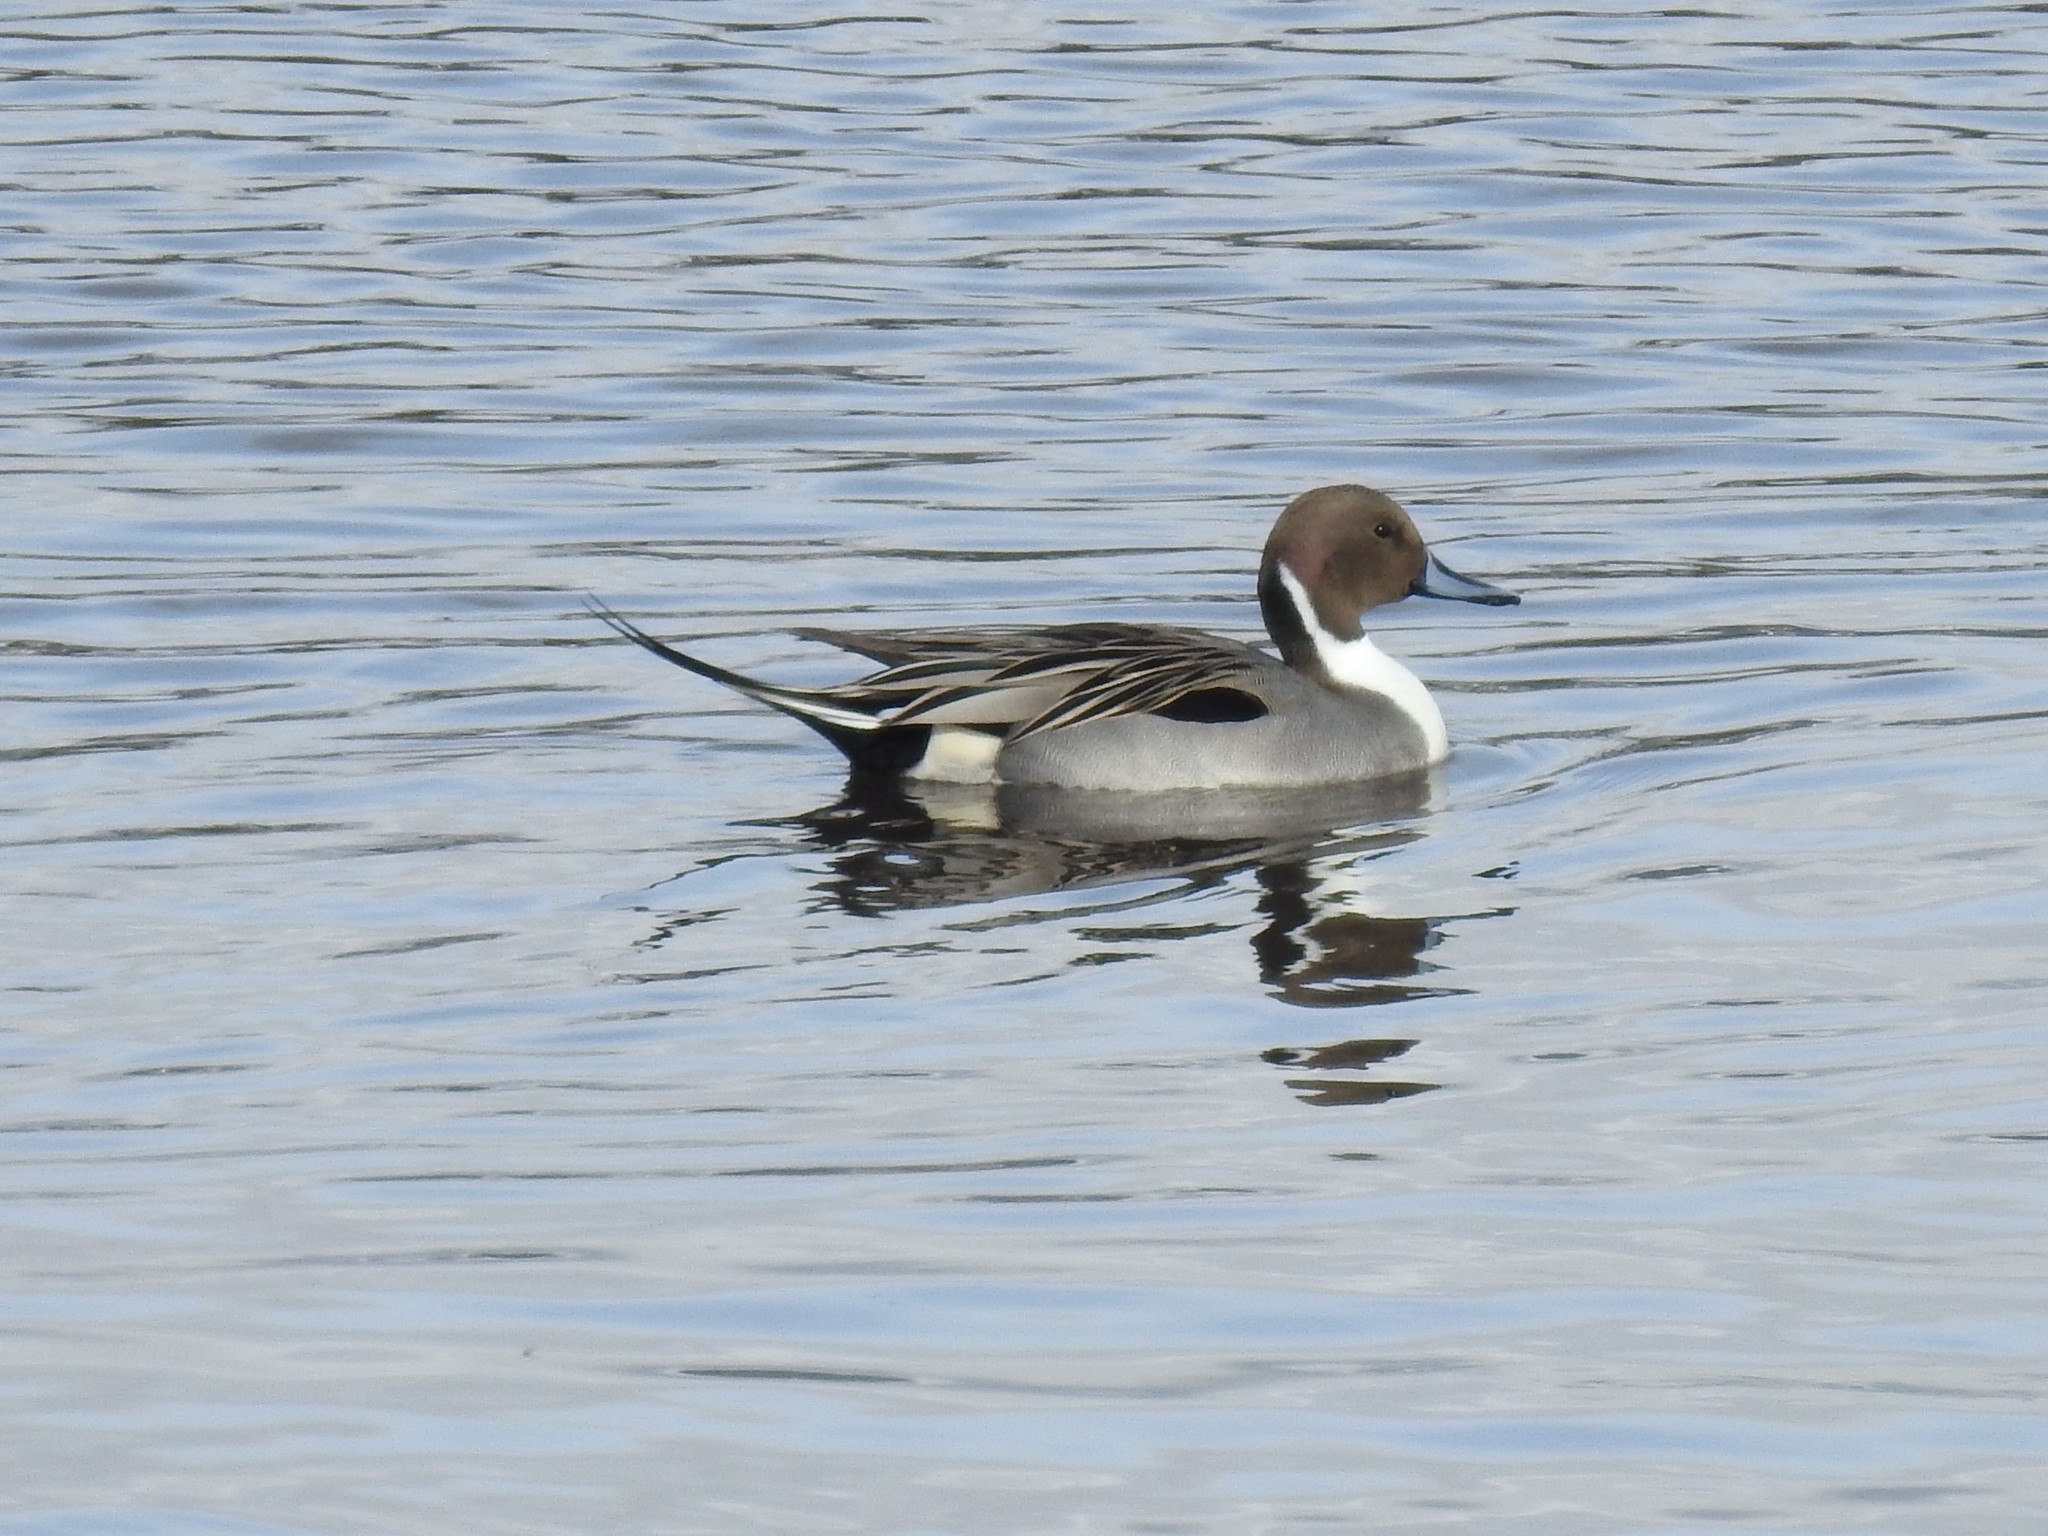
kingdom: Animalia
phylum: Chordata
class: Aves
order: Anseriformes
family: Anatidae
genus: Anas
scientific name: Anas acuta
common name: Northern pintail
